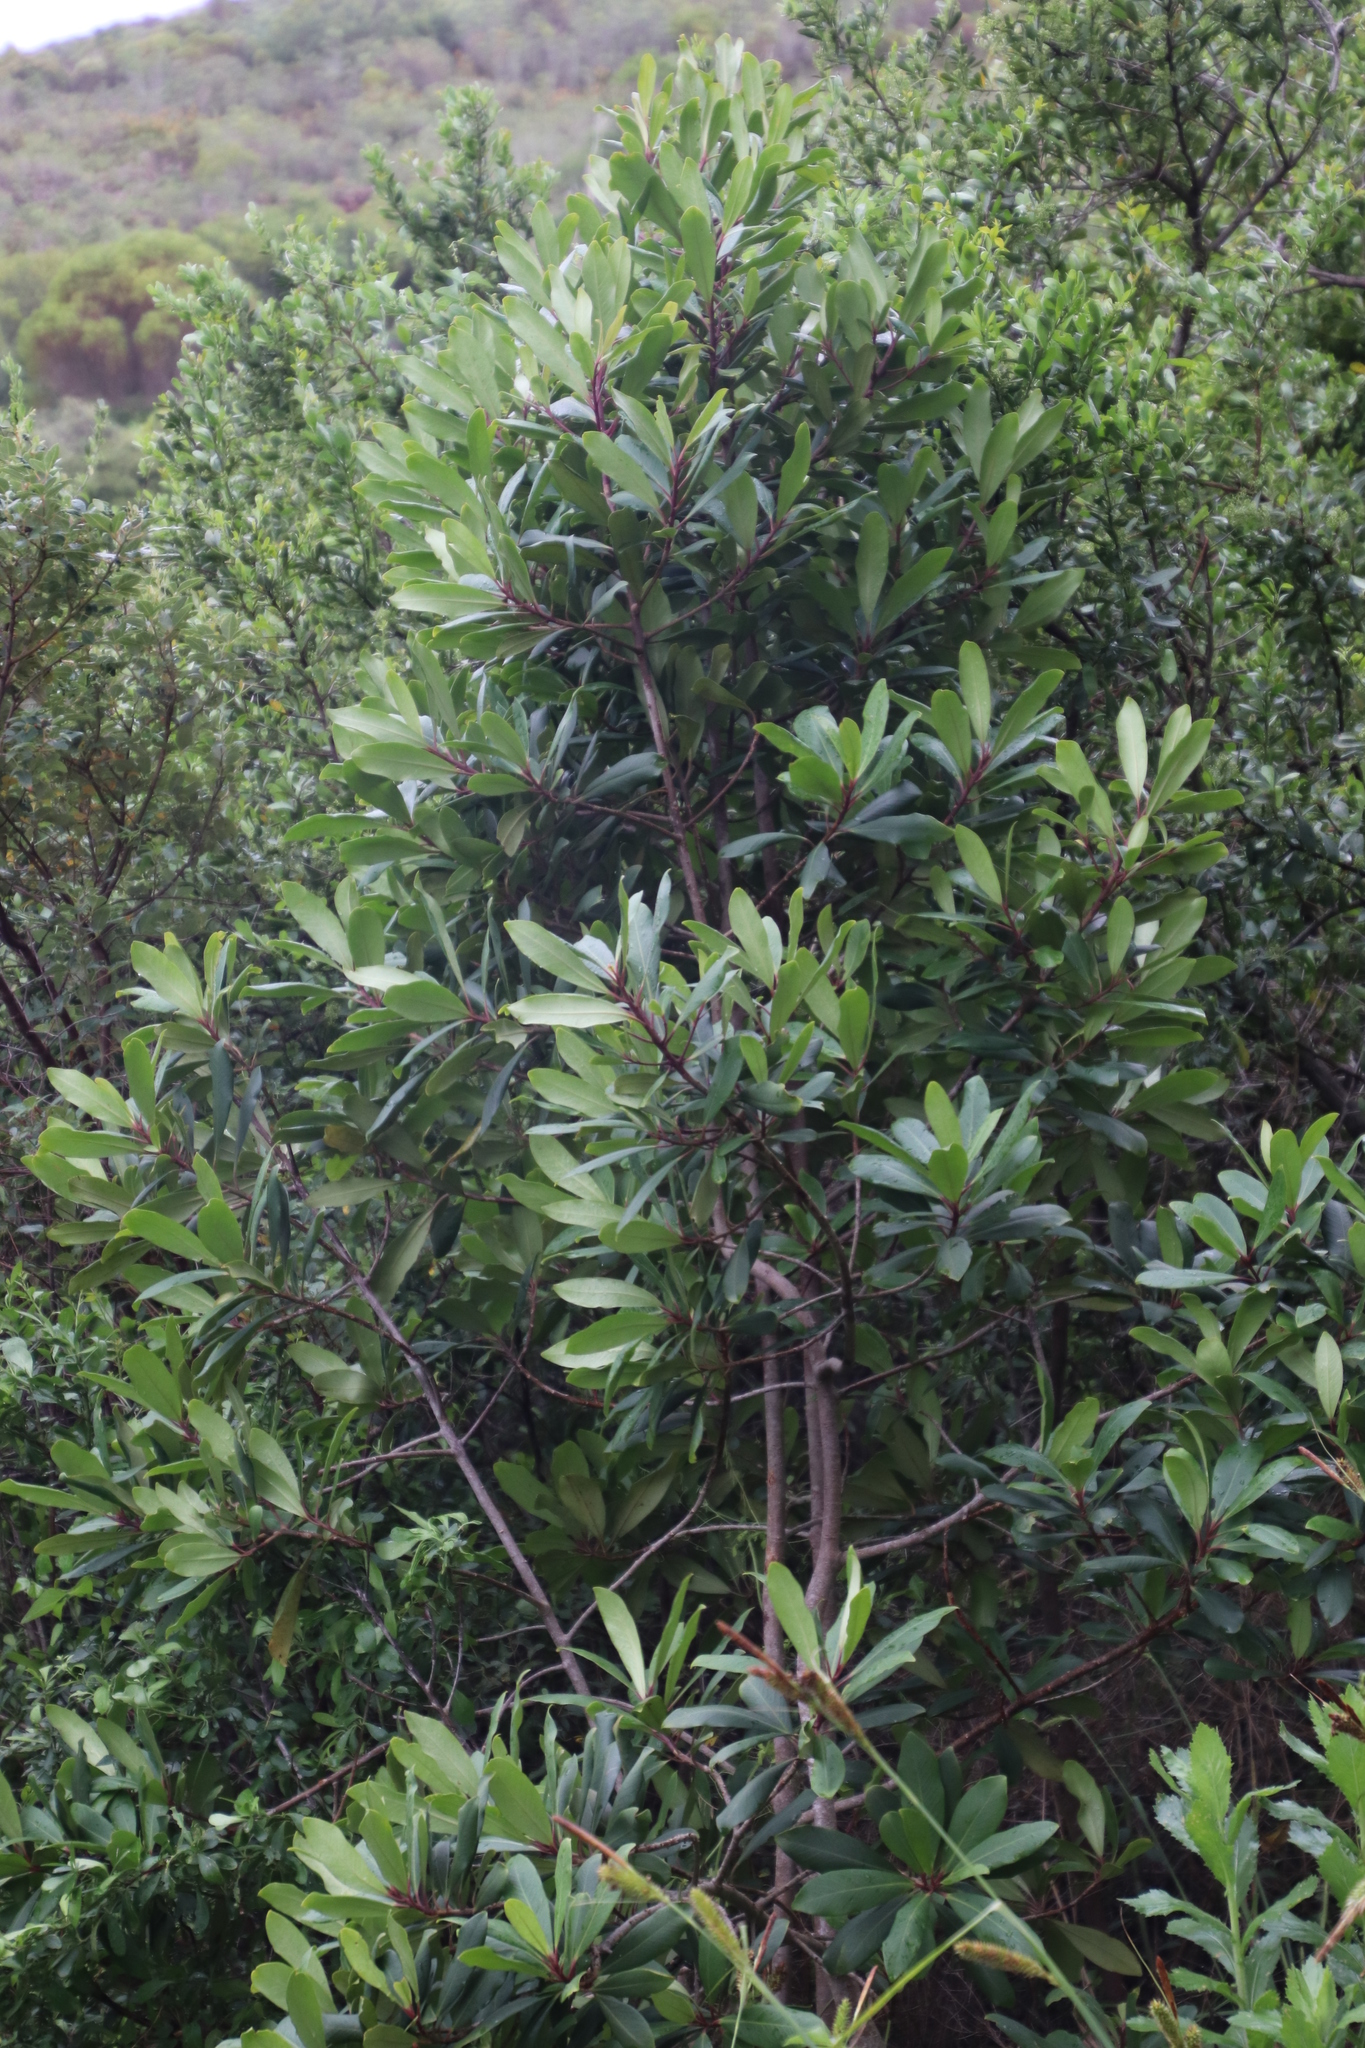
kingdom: Plantae
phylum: Tracheophyta
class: Magnoliopsida
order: Ericales
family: Primulaceae
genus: Myrsine
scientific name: Myrsine melanophloeos
